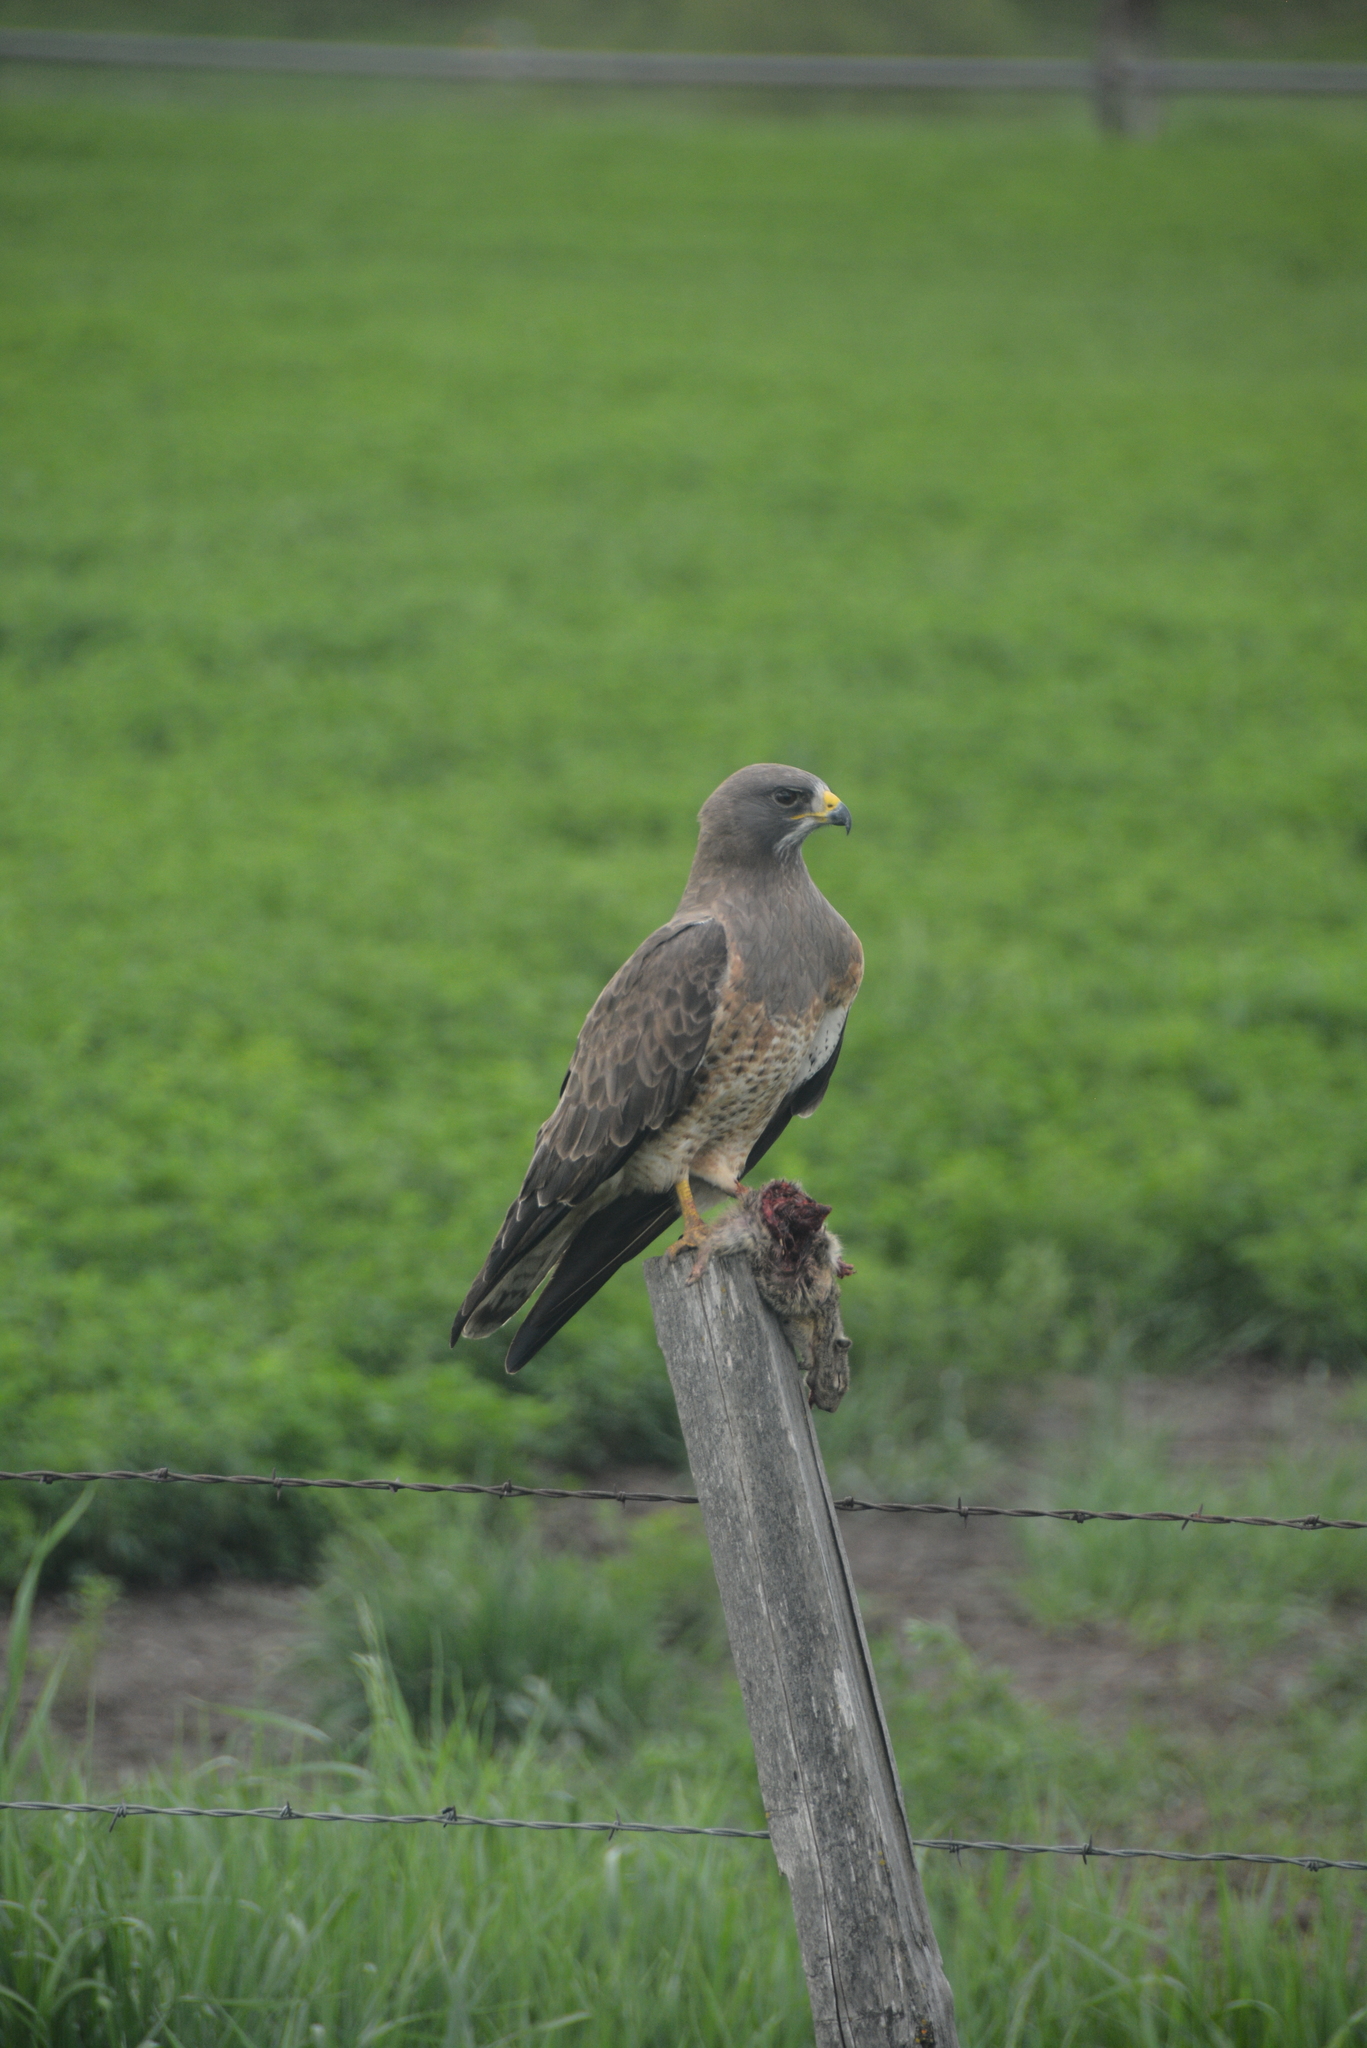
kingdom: Animalia
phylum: Chordata
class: Aves
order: Accipitriformes
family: Accipitridae
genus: Buteo
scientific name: Buteo swainsoni
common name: Swainson's hawk
